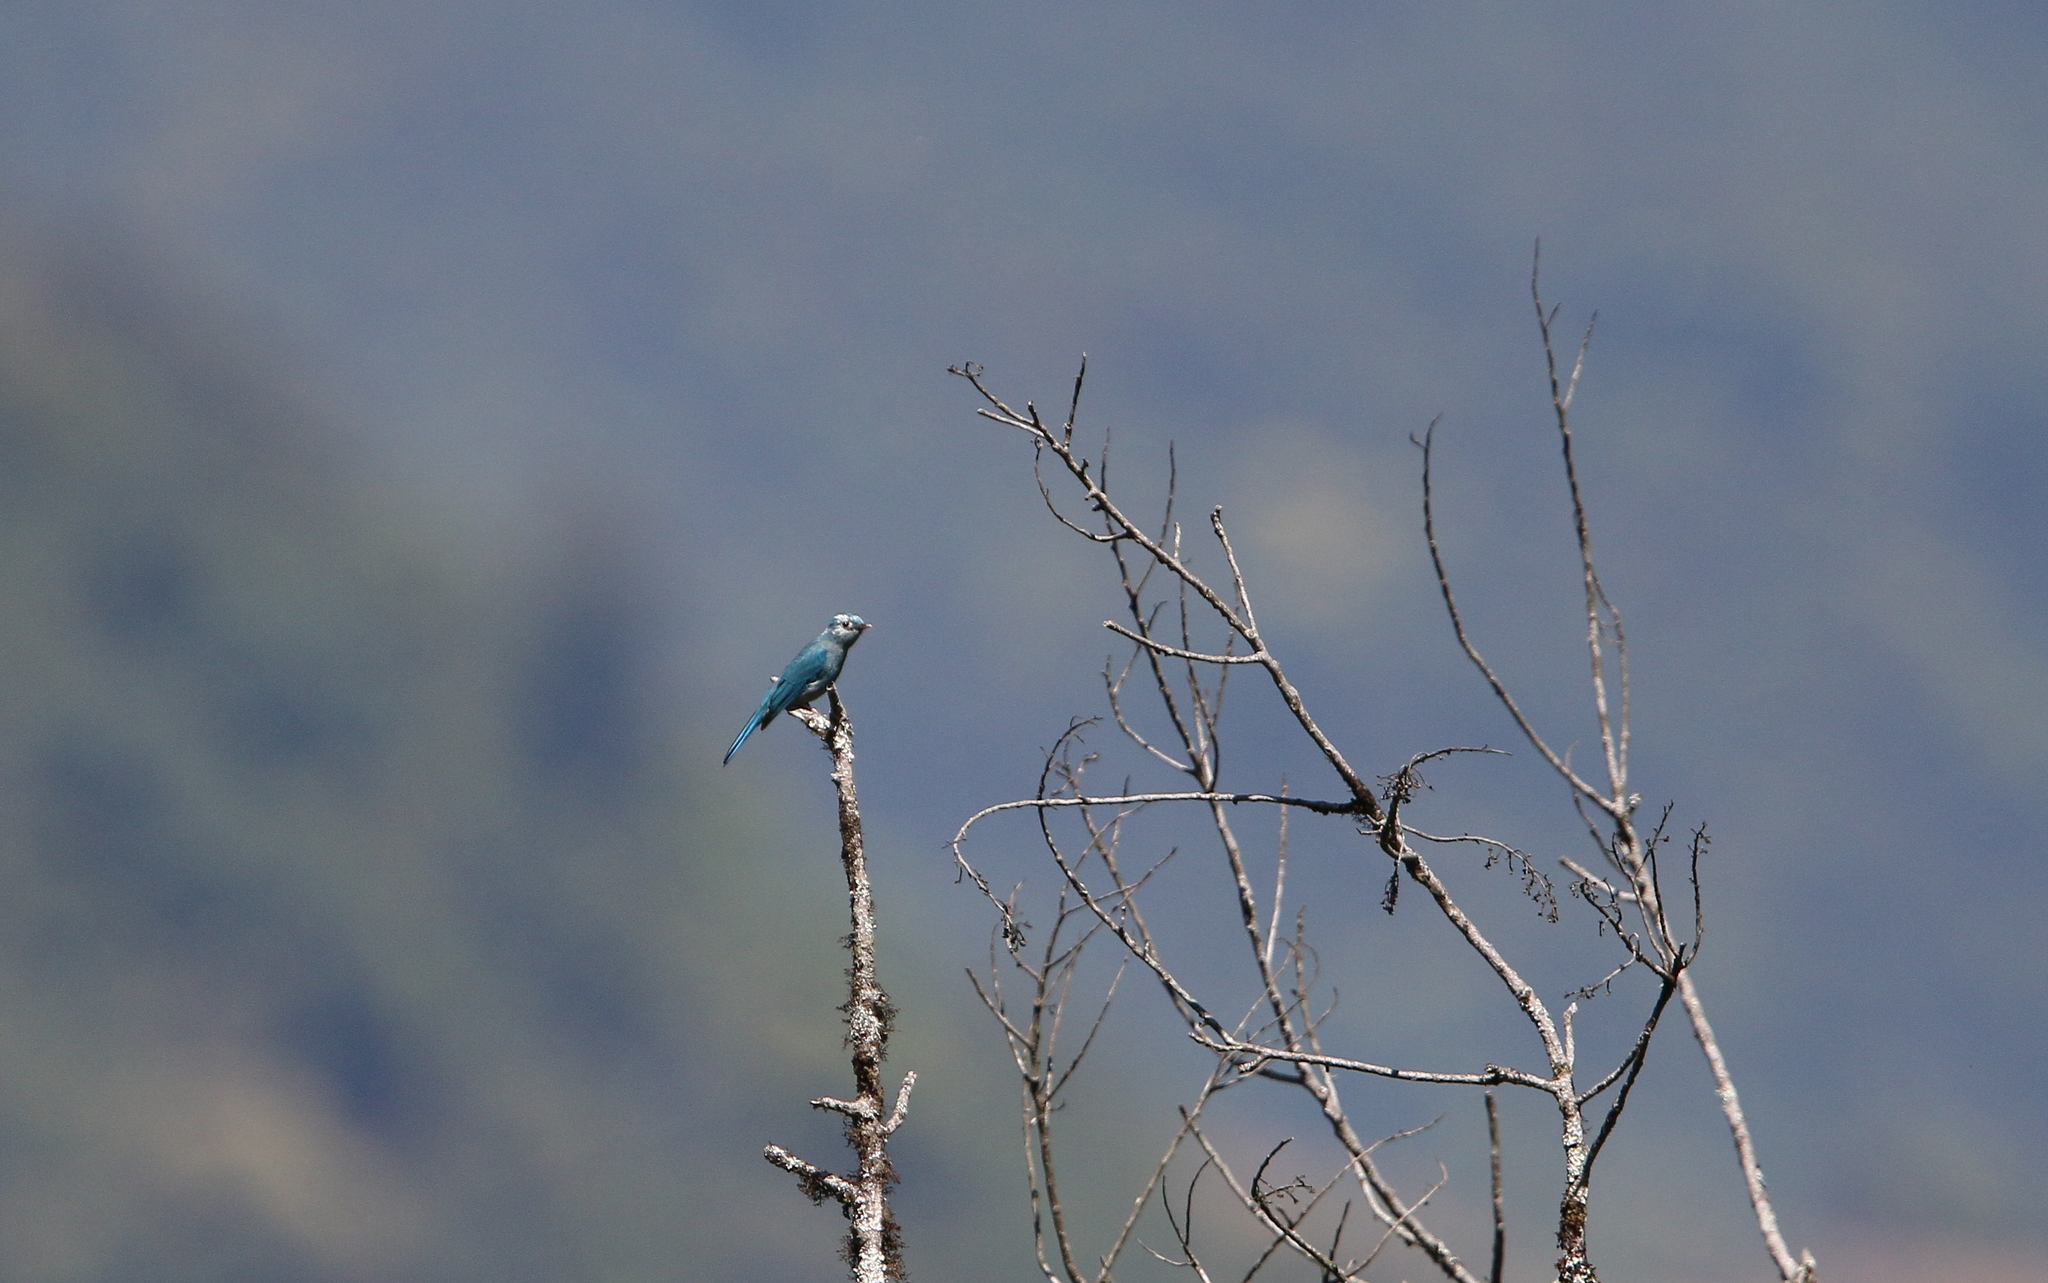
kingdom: Animalia
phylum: Chordata
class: Aves
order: Passeriformes
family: Muscicapidae
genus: Eumyias
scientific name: Eumyias thalassinus
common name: Verditer flycatcher
